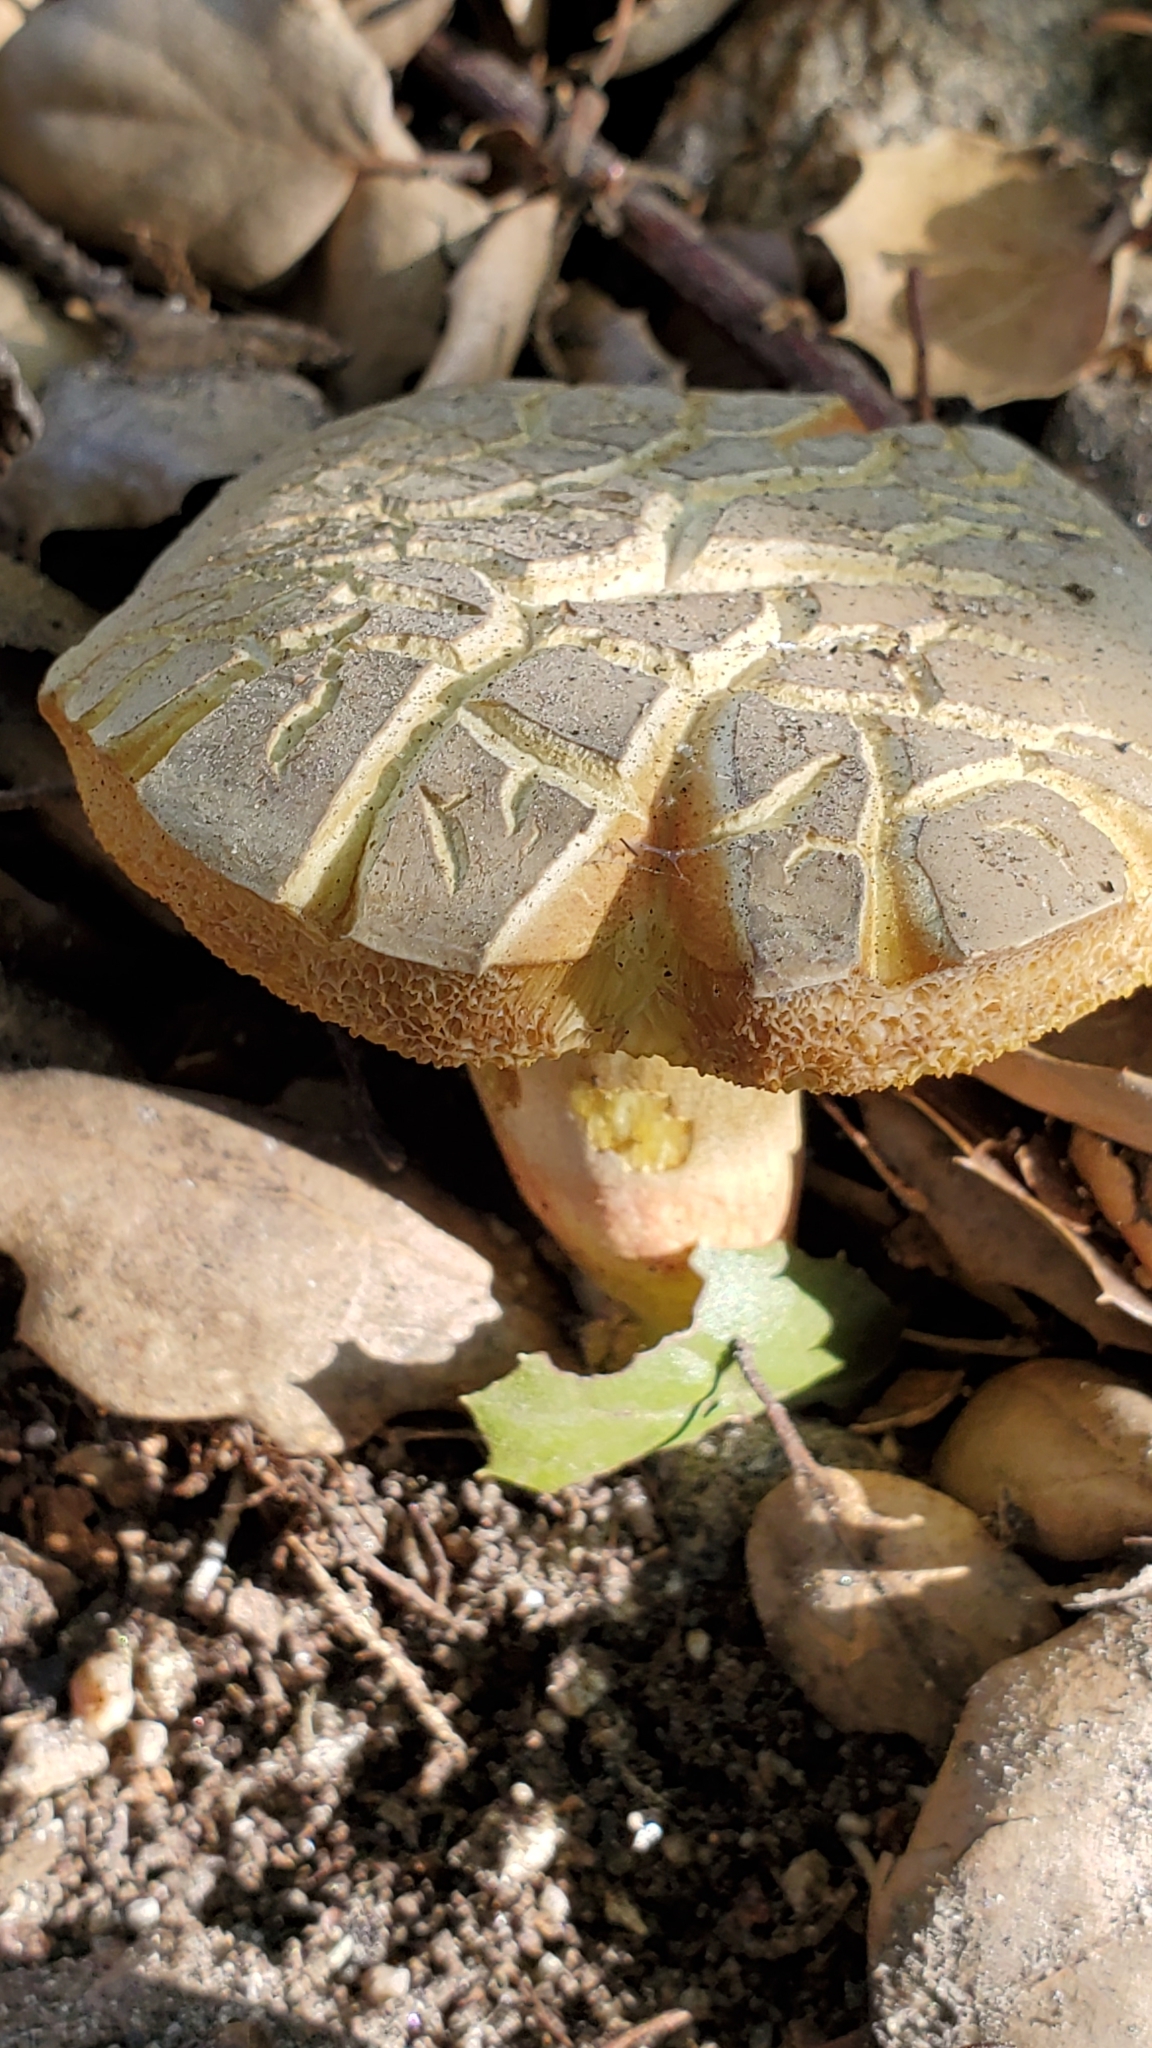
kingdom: Fungi
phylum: Basidiomycota
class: Agaricomycetes
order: Boletales
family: Boletaceae
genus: Xerocomellus
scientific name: Xerocomellus
